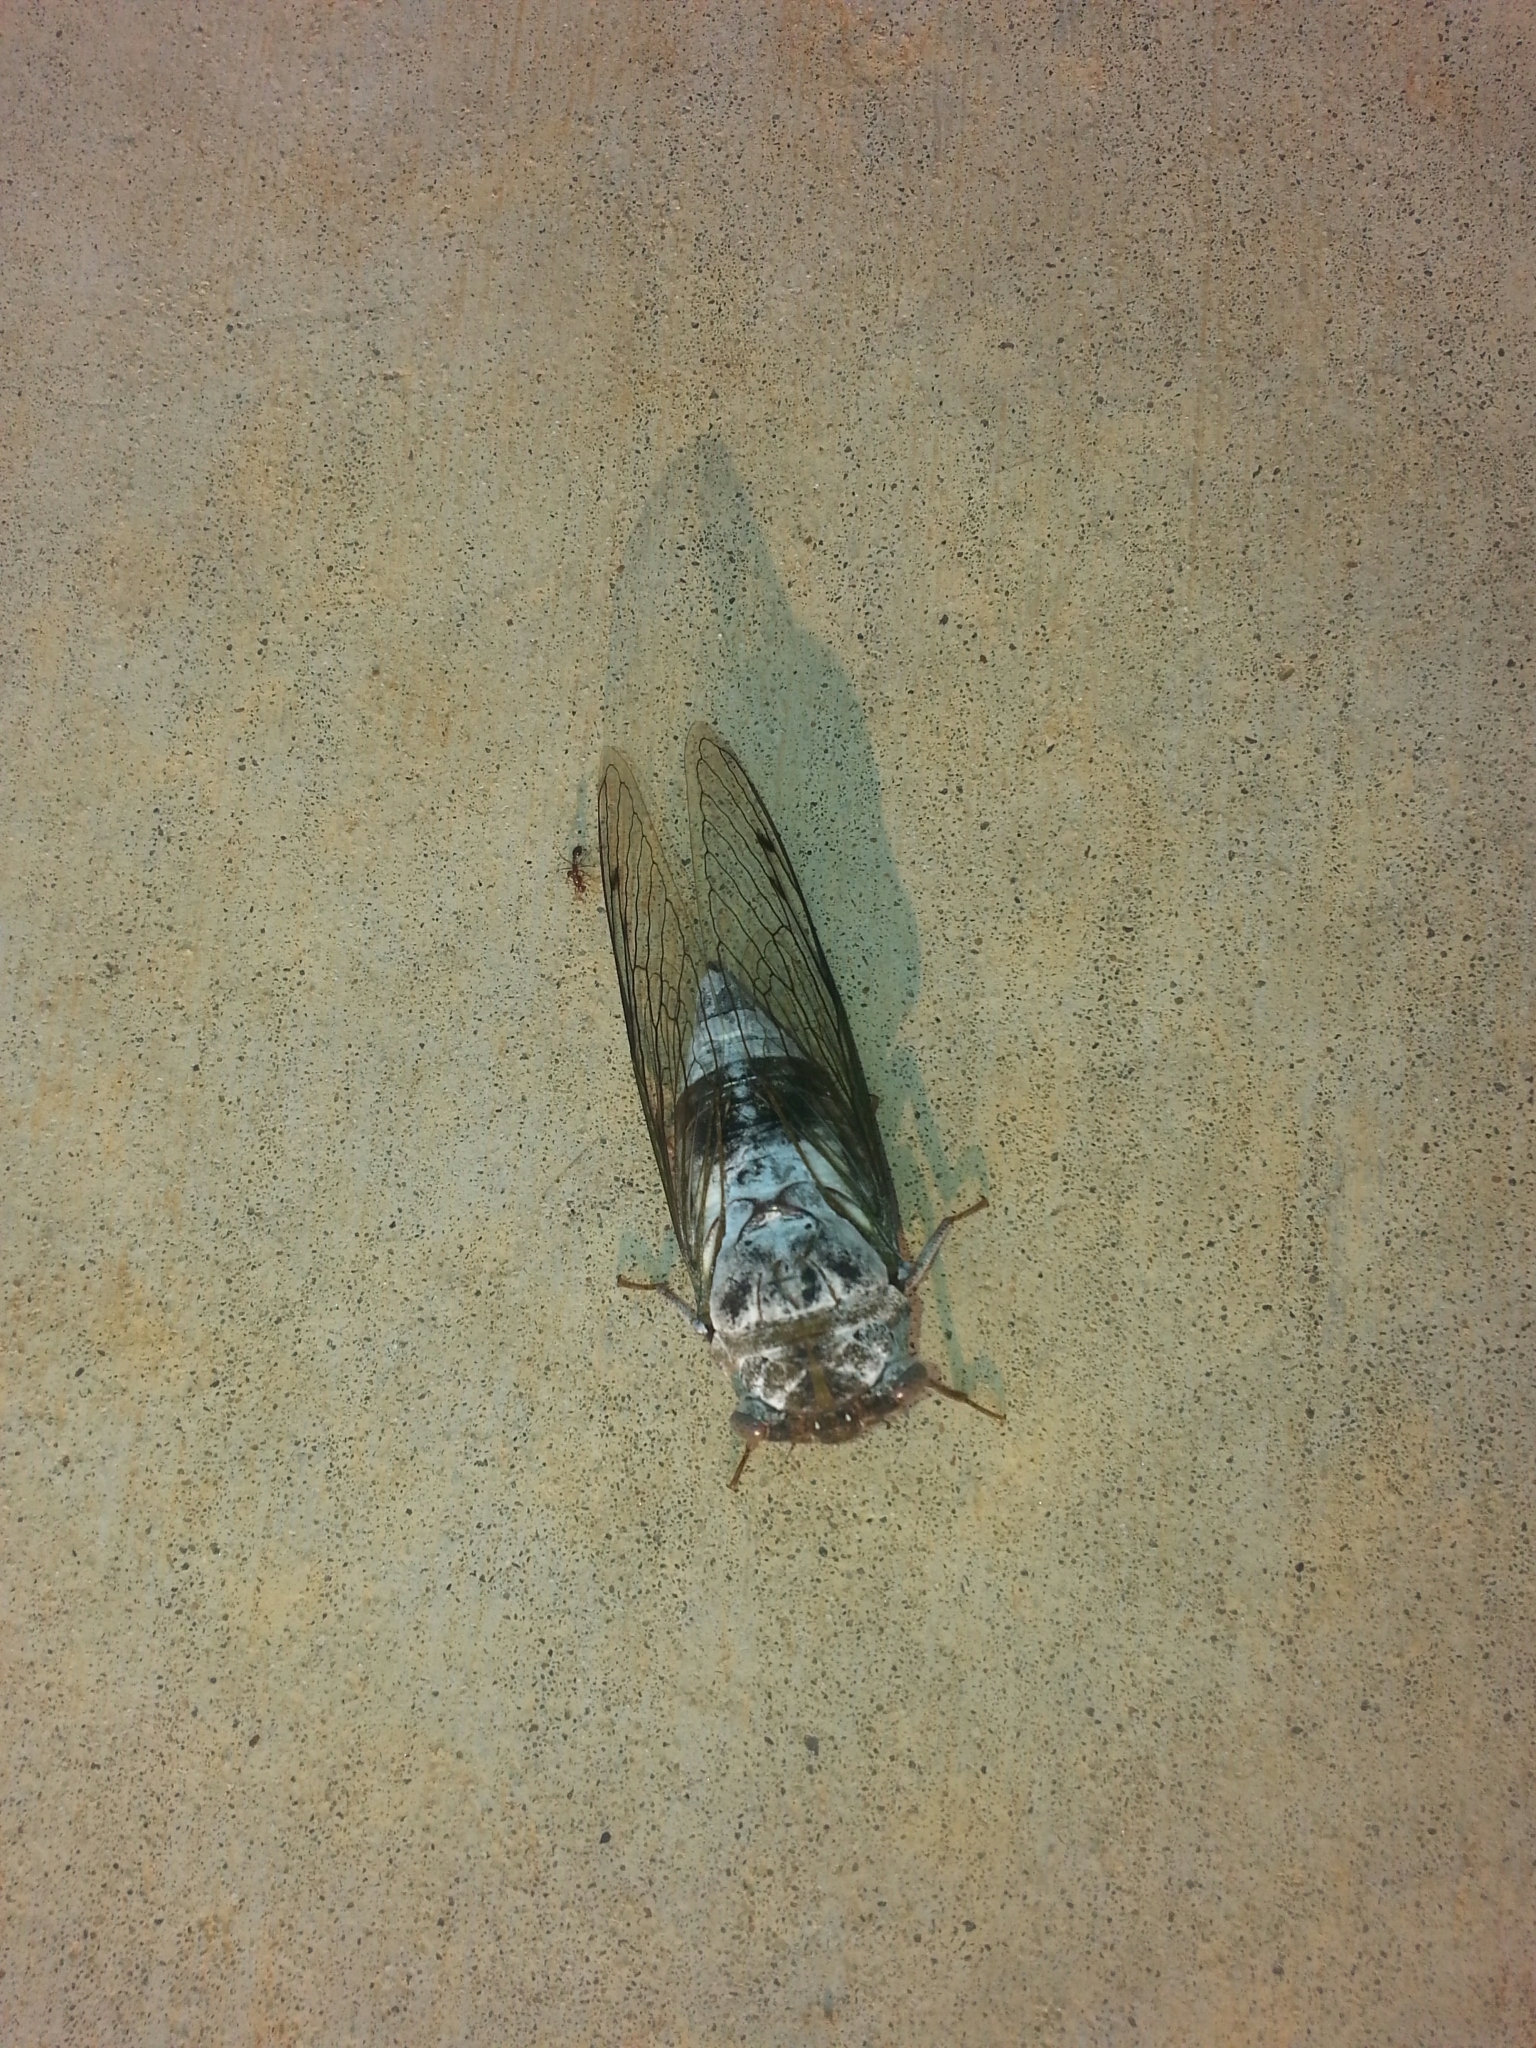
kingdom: Animalia
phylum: Arthropoda
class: Insecta
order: Hemiptera
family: Cicadidae
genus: Diceroprocta
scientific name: Diceroprocta grossa
